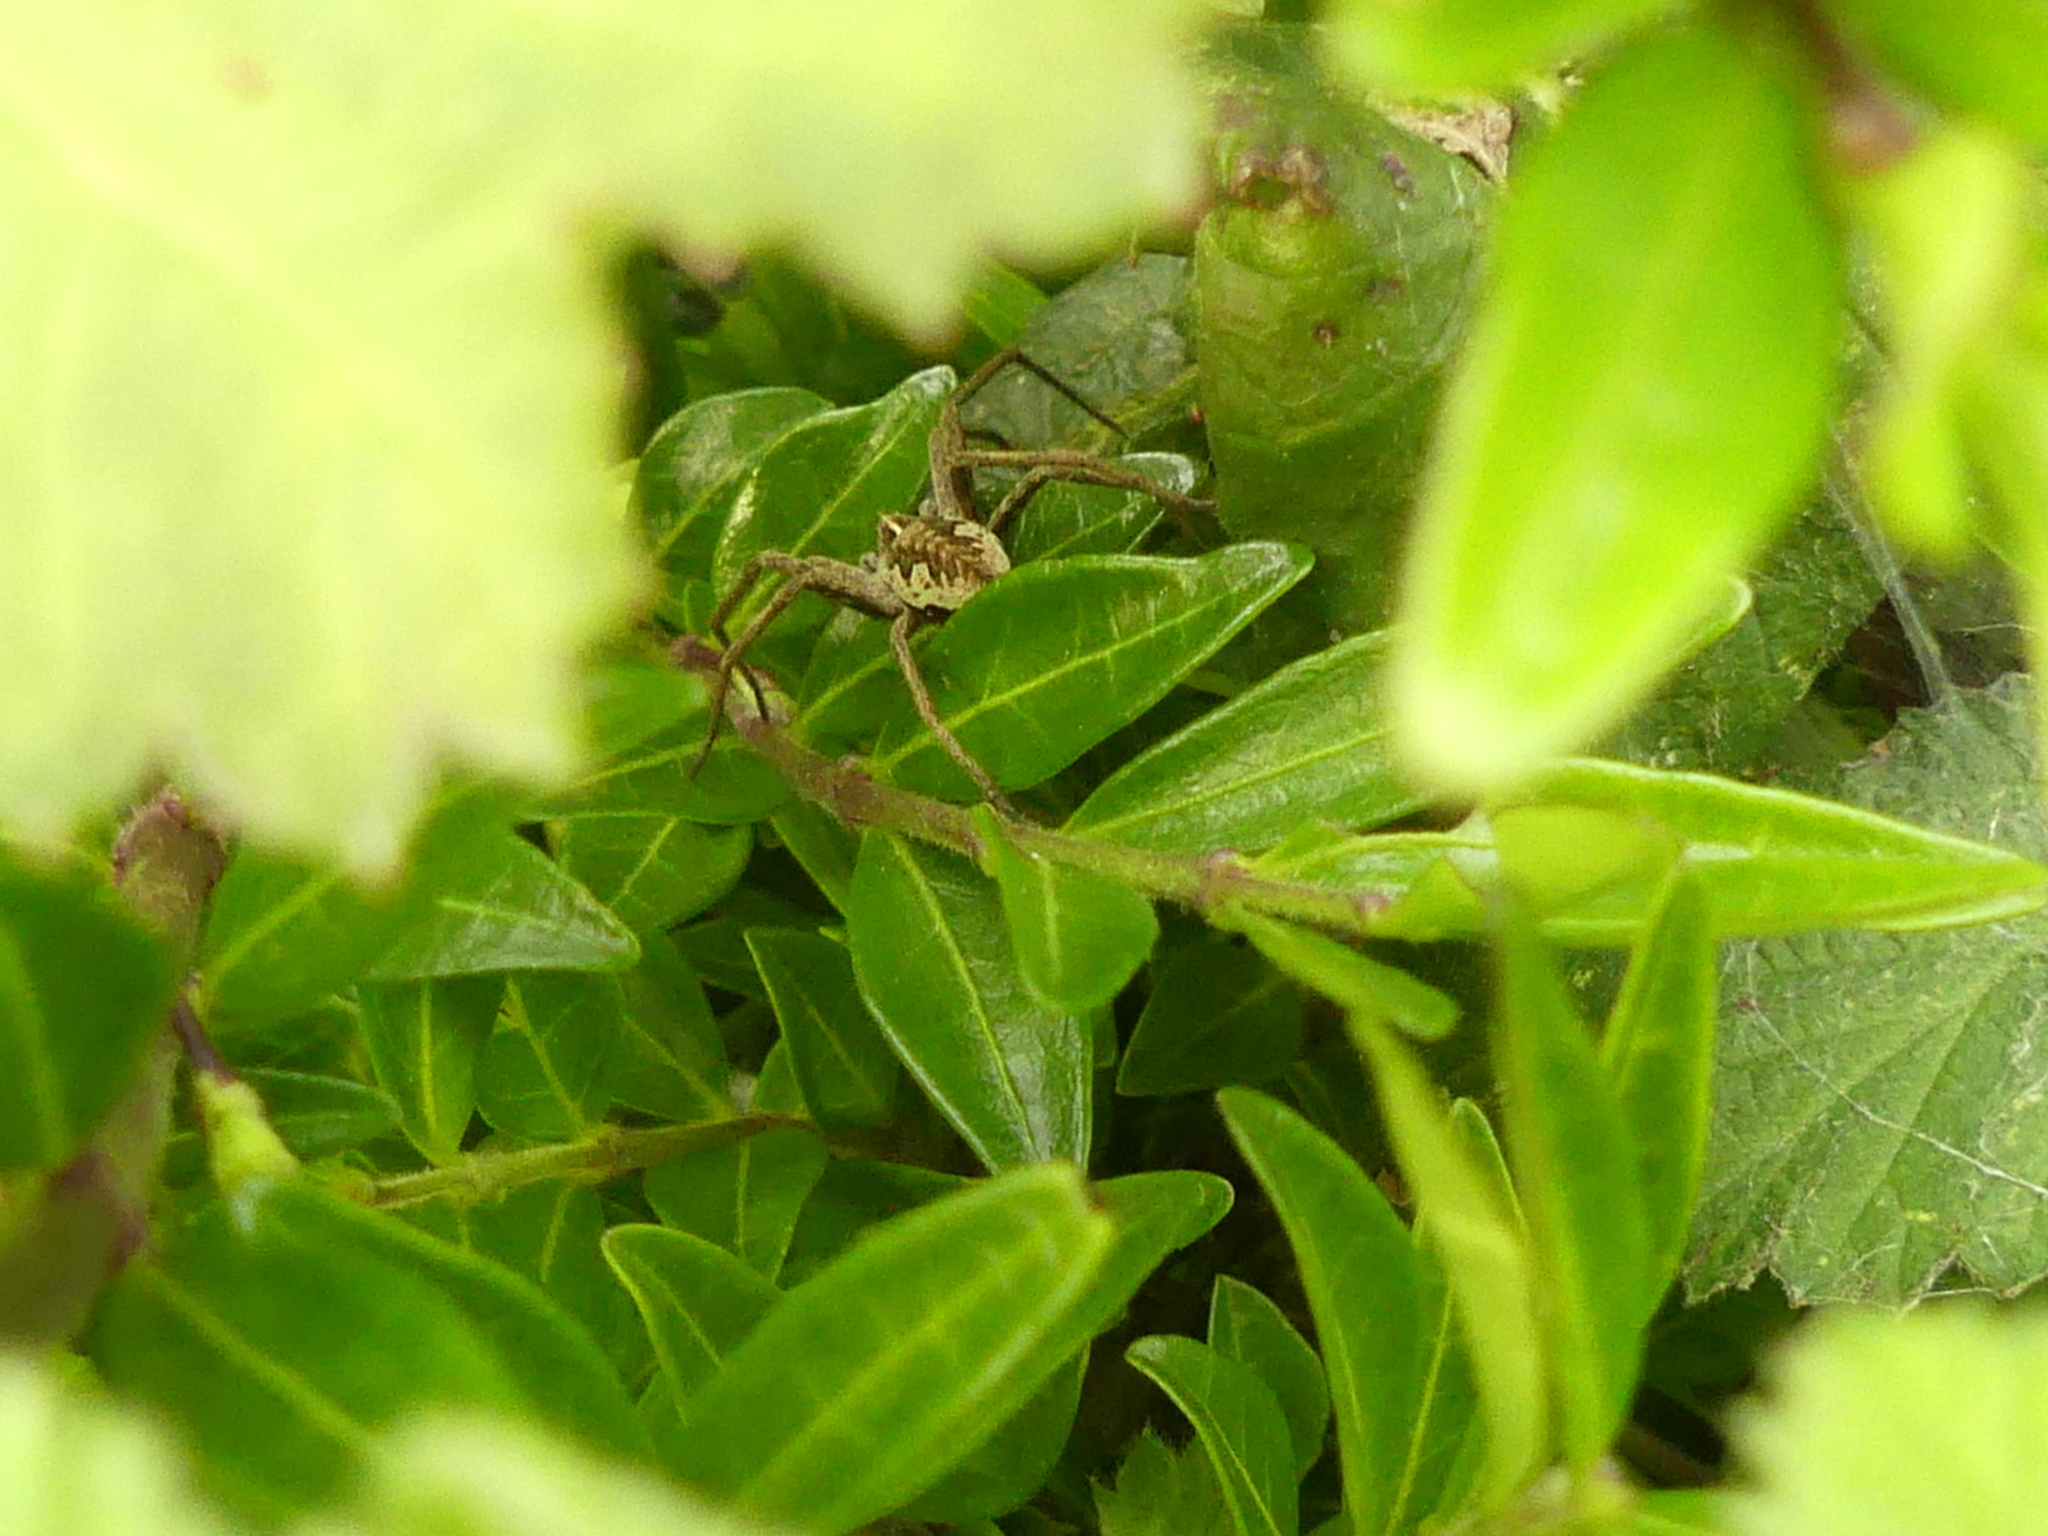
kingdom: Animalia
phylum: Arthropoda
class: Arachnida
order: Araneae
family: Pisauridae
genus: Pisaura
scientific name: Pisaura mirabilis
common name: Tent spider
